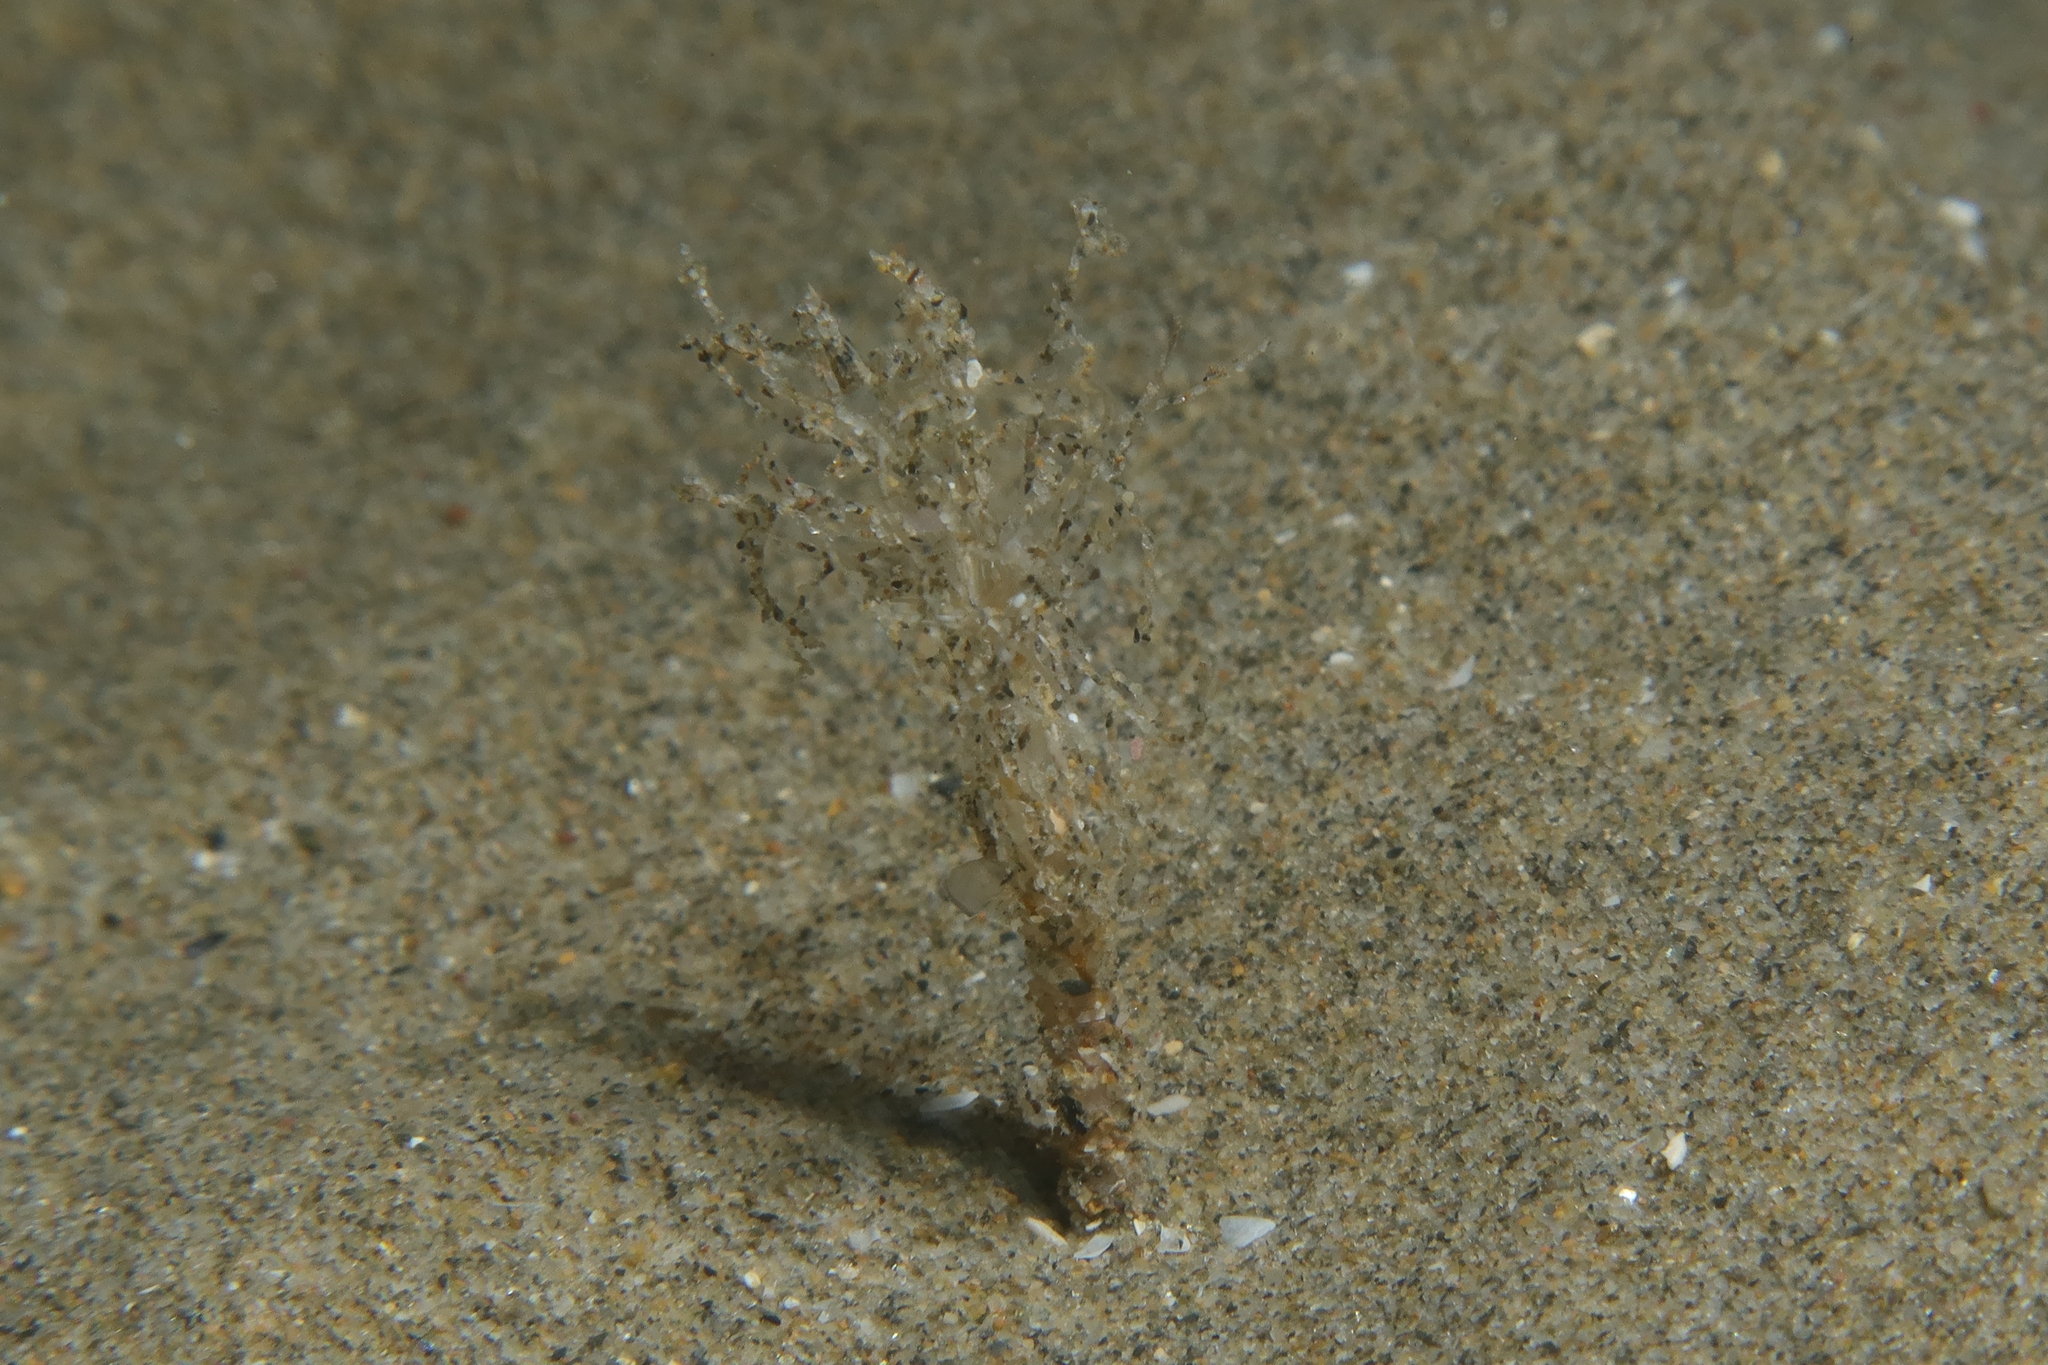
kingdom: Animalia
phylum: Annelida
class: Polychaeta
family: Terebellidae
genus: Lanice
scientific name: Lanice conchilega
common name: Sand mason
